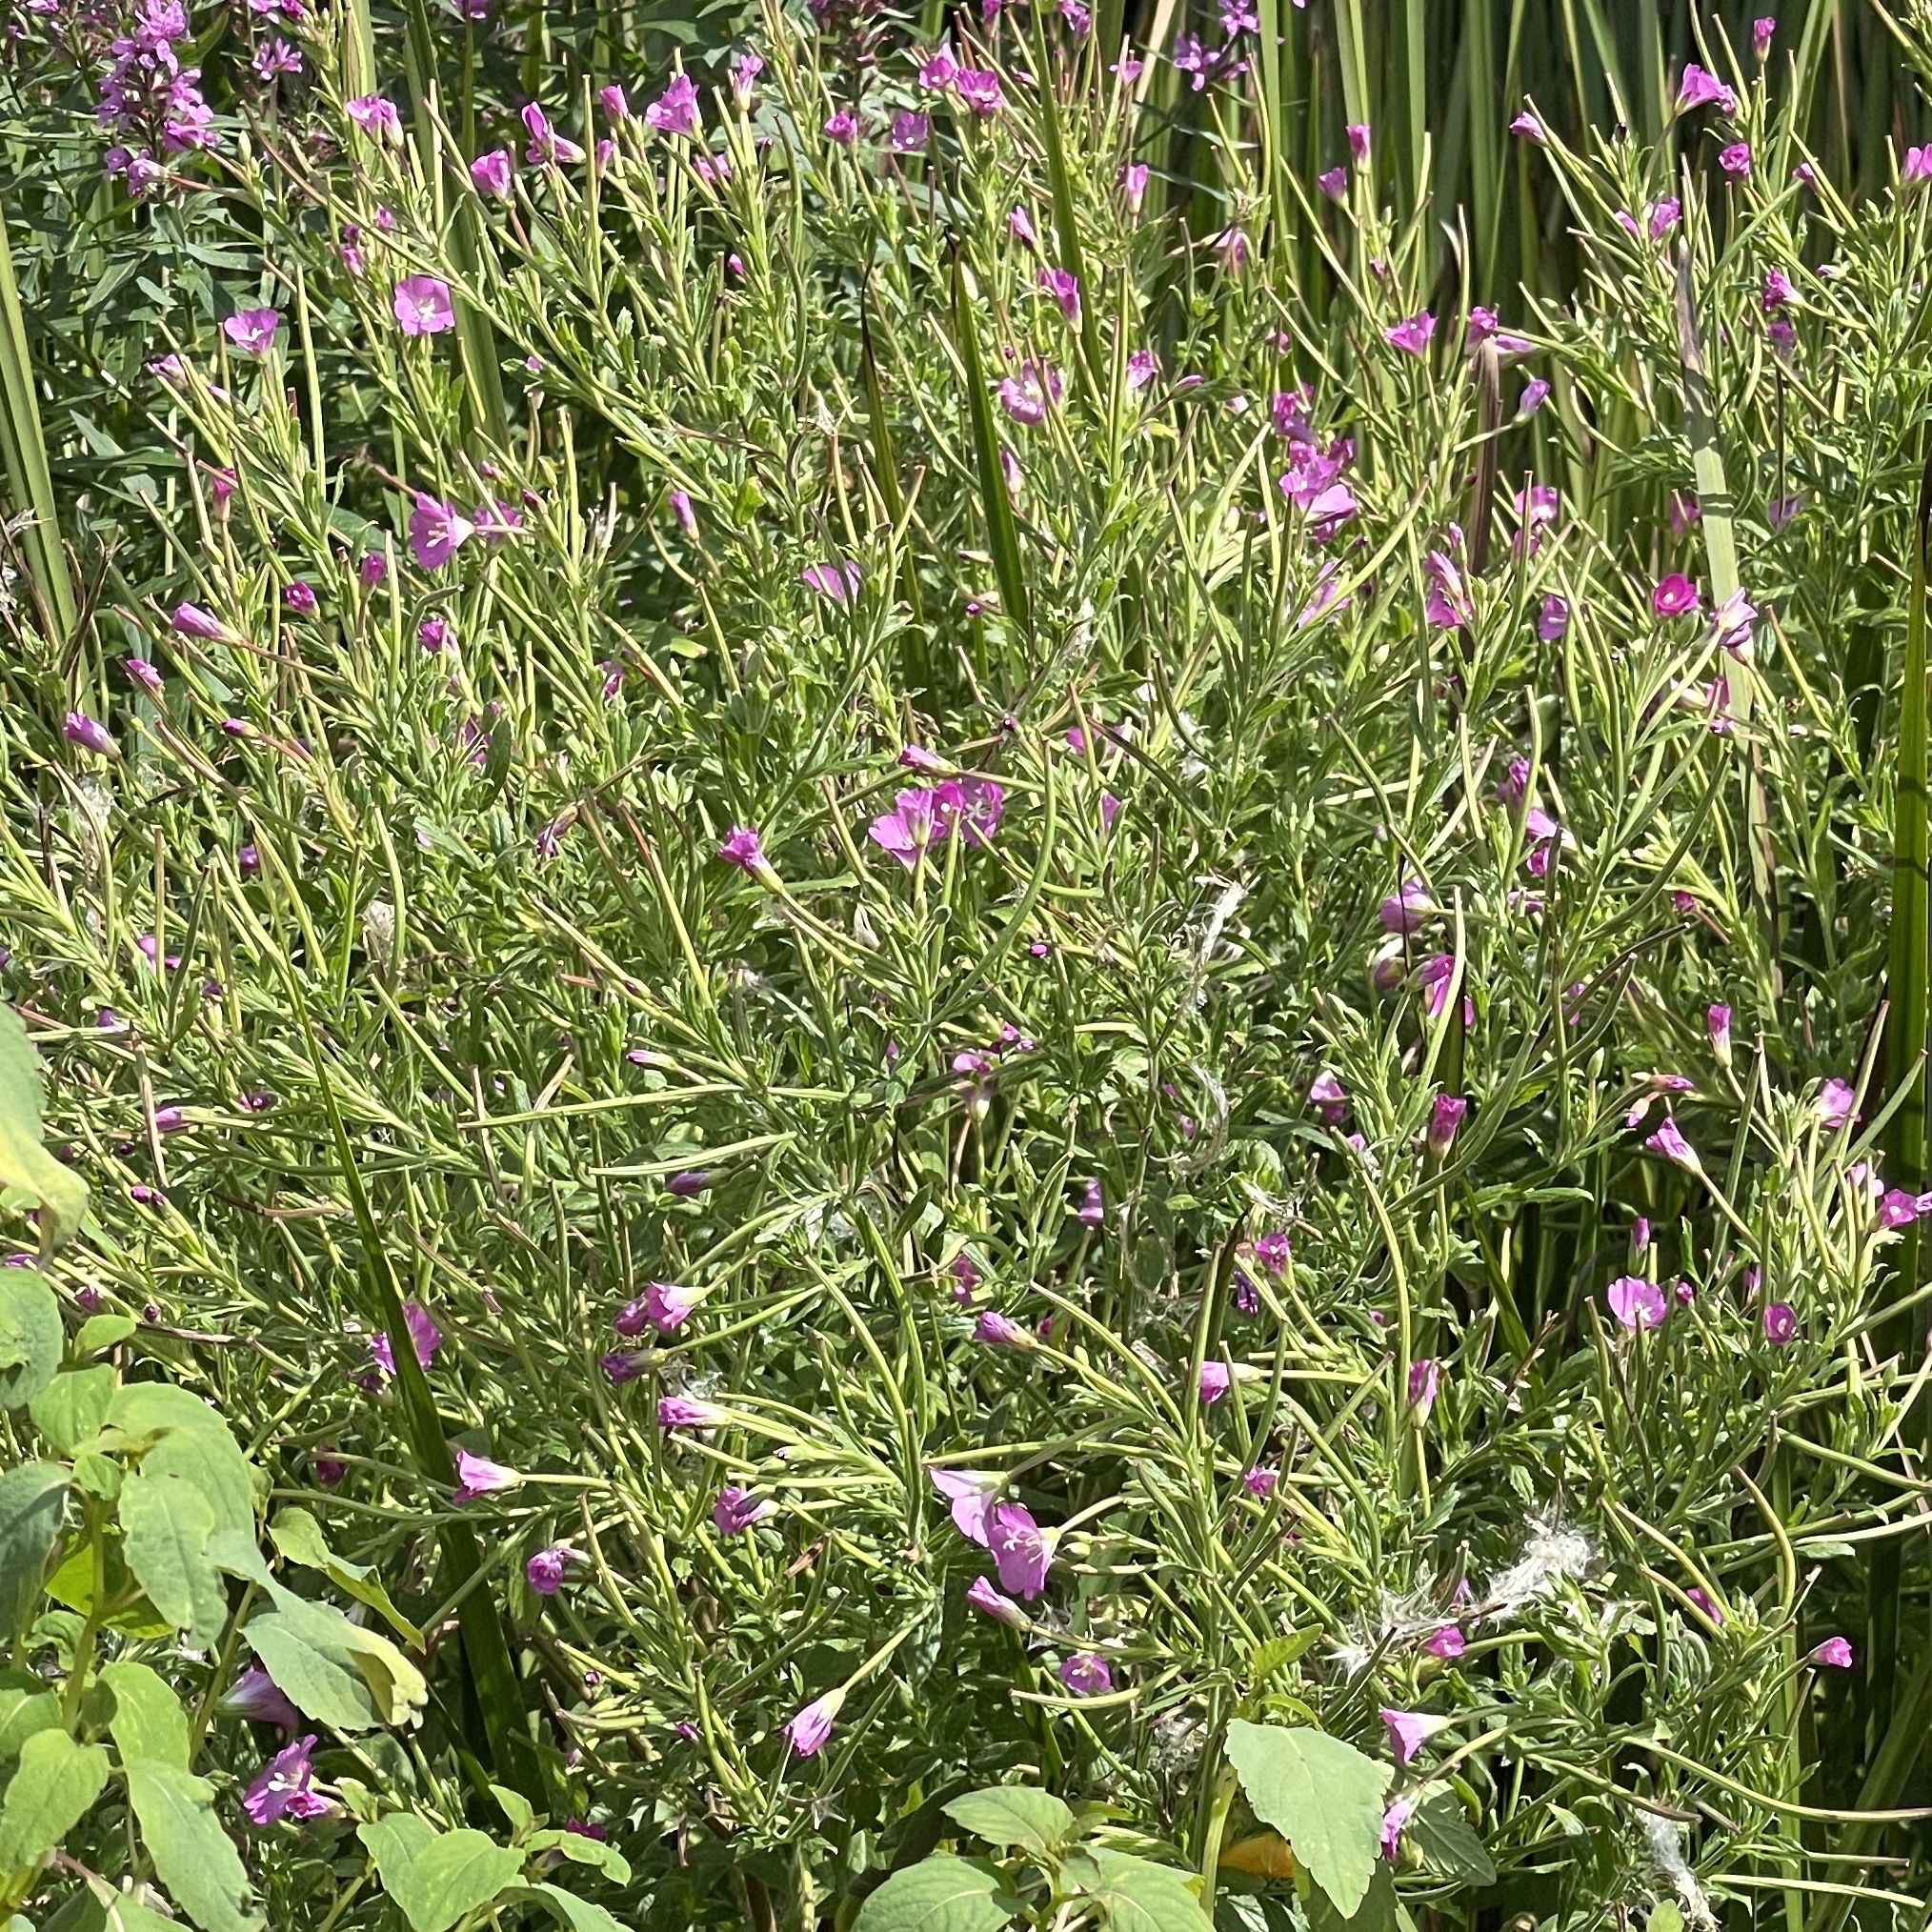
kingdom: Plantae
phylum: Tracheophyta
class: Magnoliopsida
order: Myrtales
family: Onagraceae
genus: Epilobium
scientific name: Epilobium hirsutum
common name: Great willowherb
